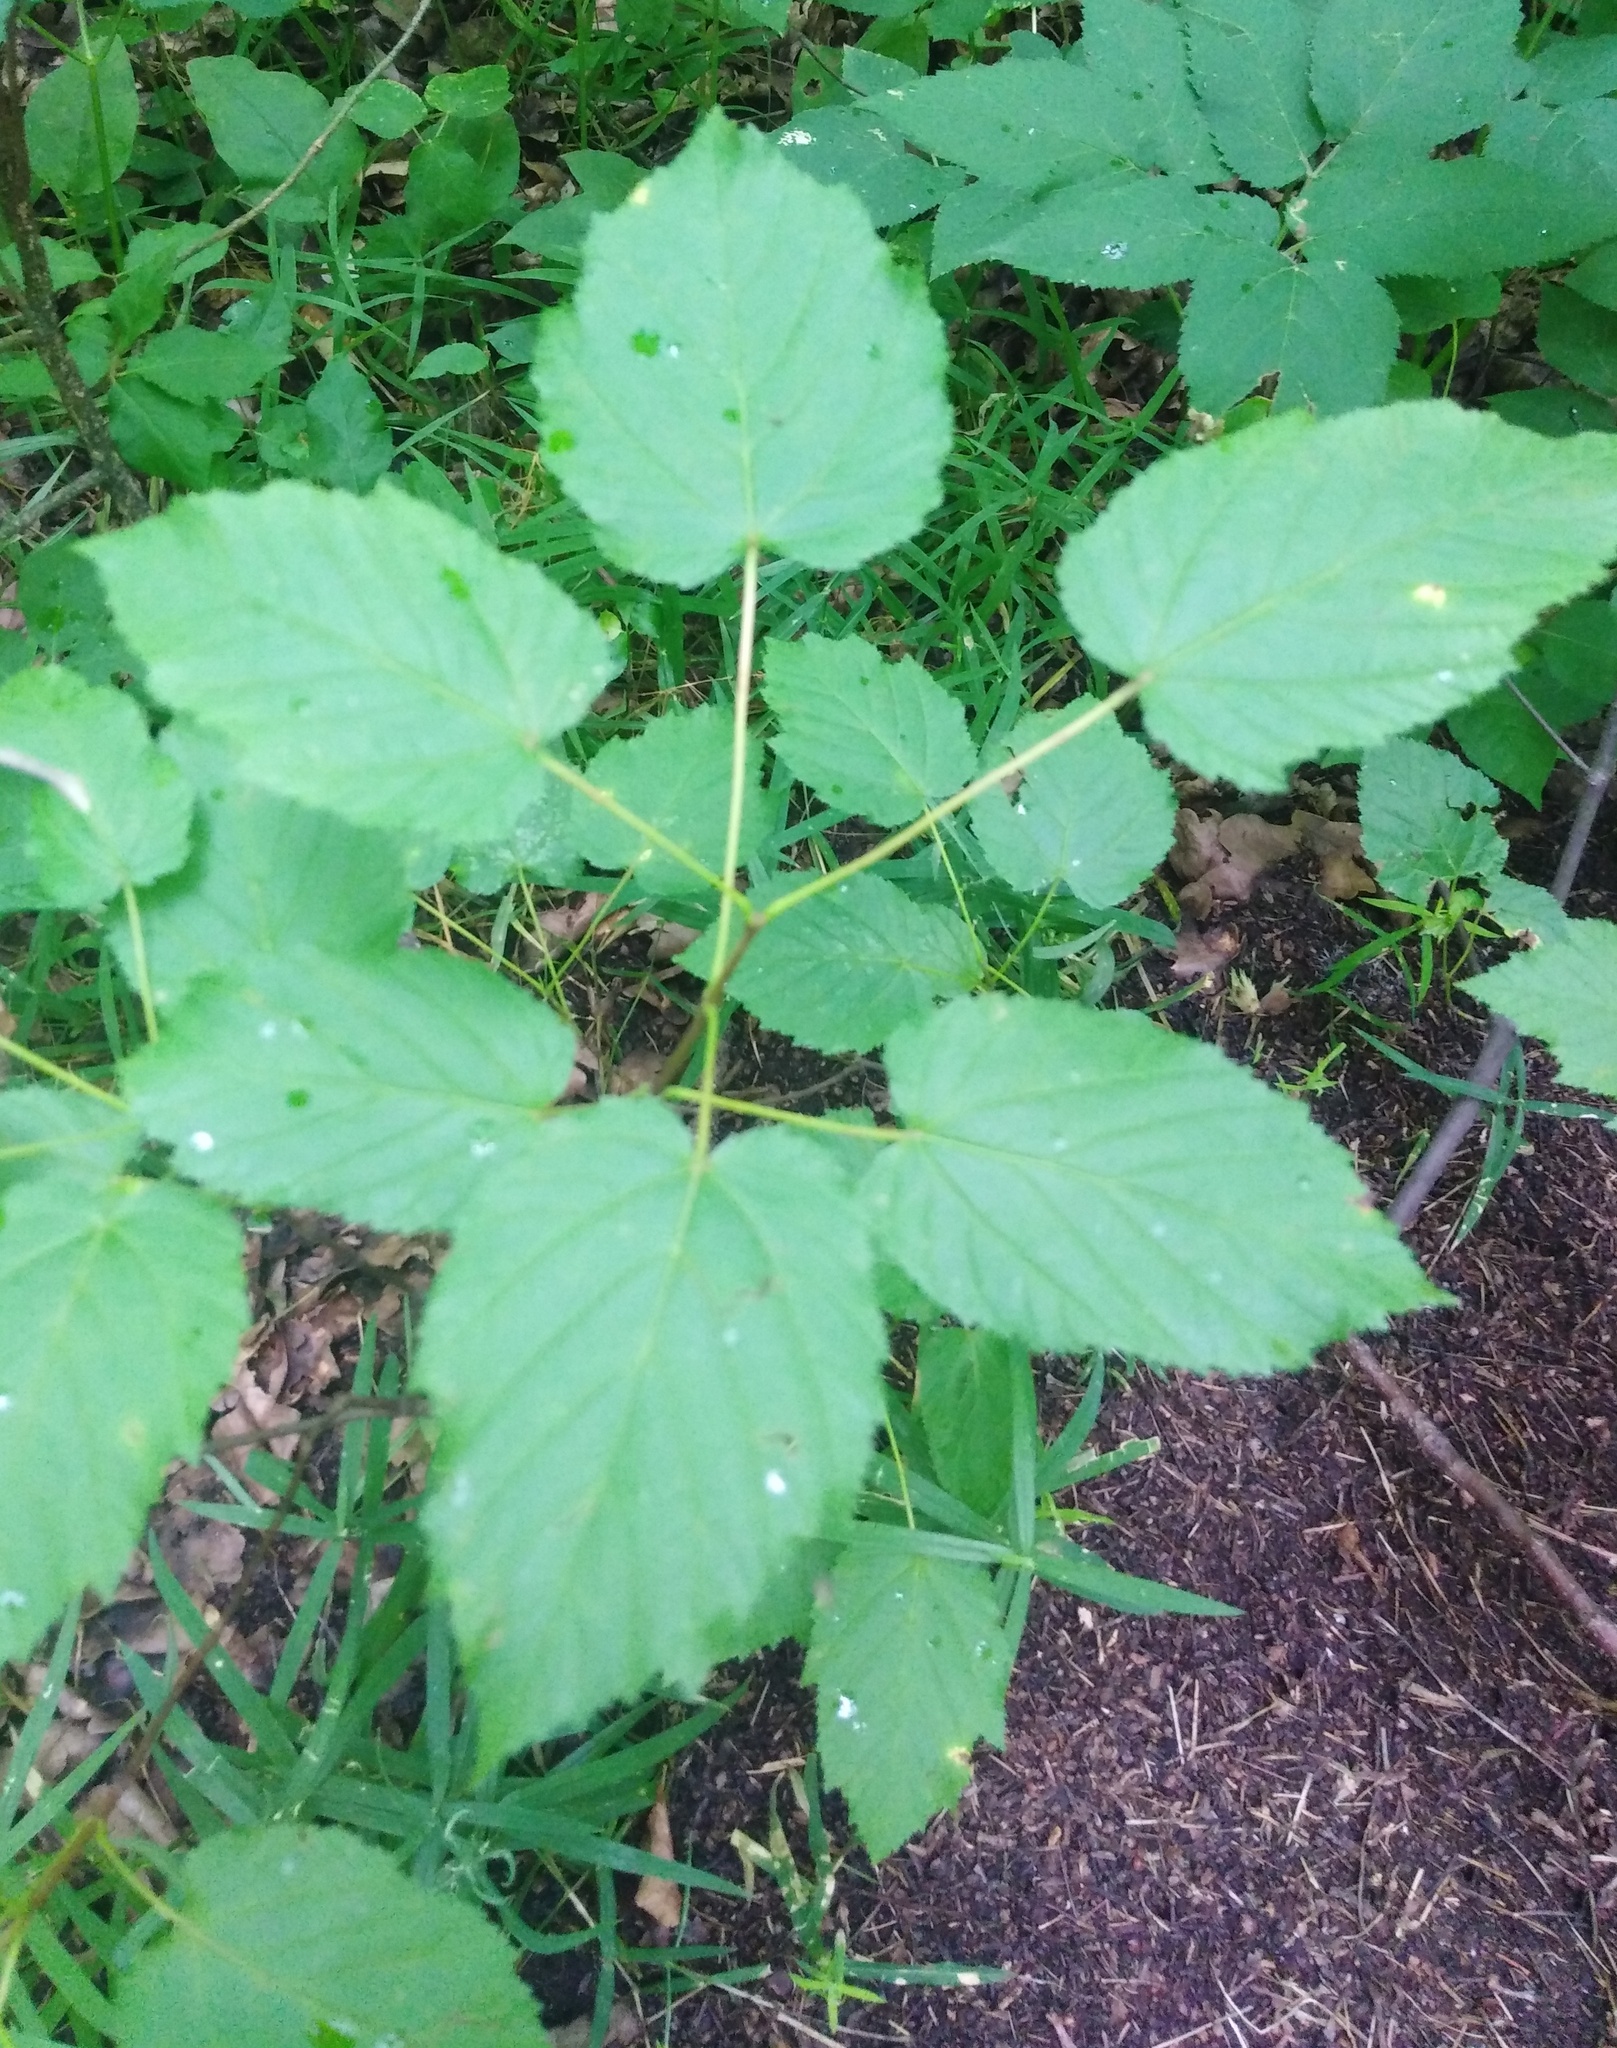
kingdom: Plantae
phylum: Tracheophyta
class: Magnoliopsida
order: Sapindales
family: Sapindaceae
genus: Acer
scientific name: Acer tataricum
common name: Tartar maple
